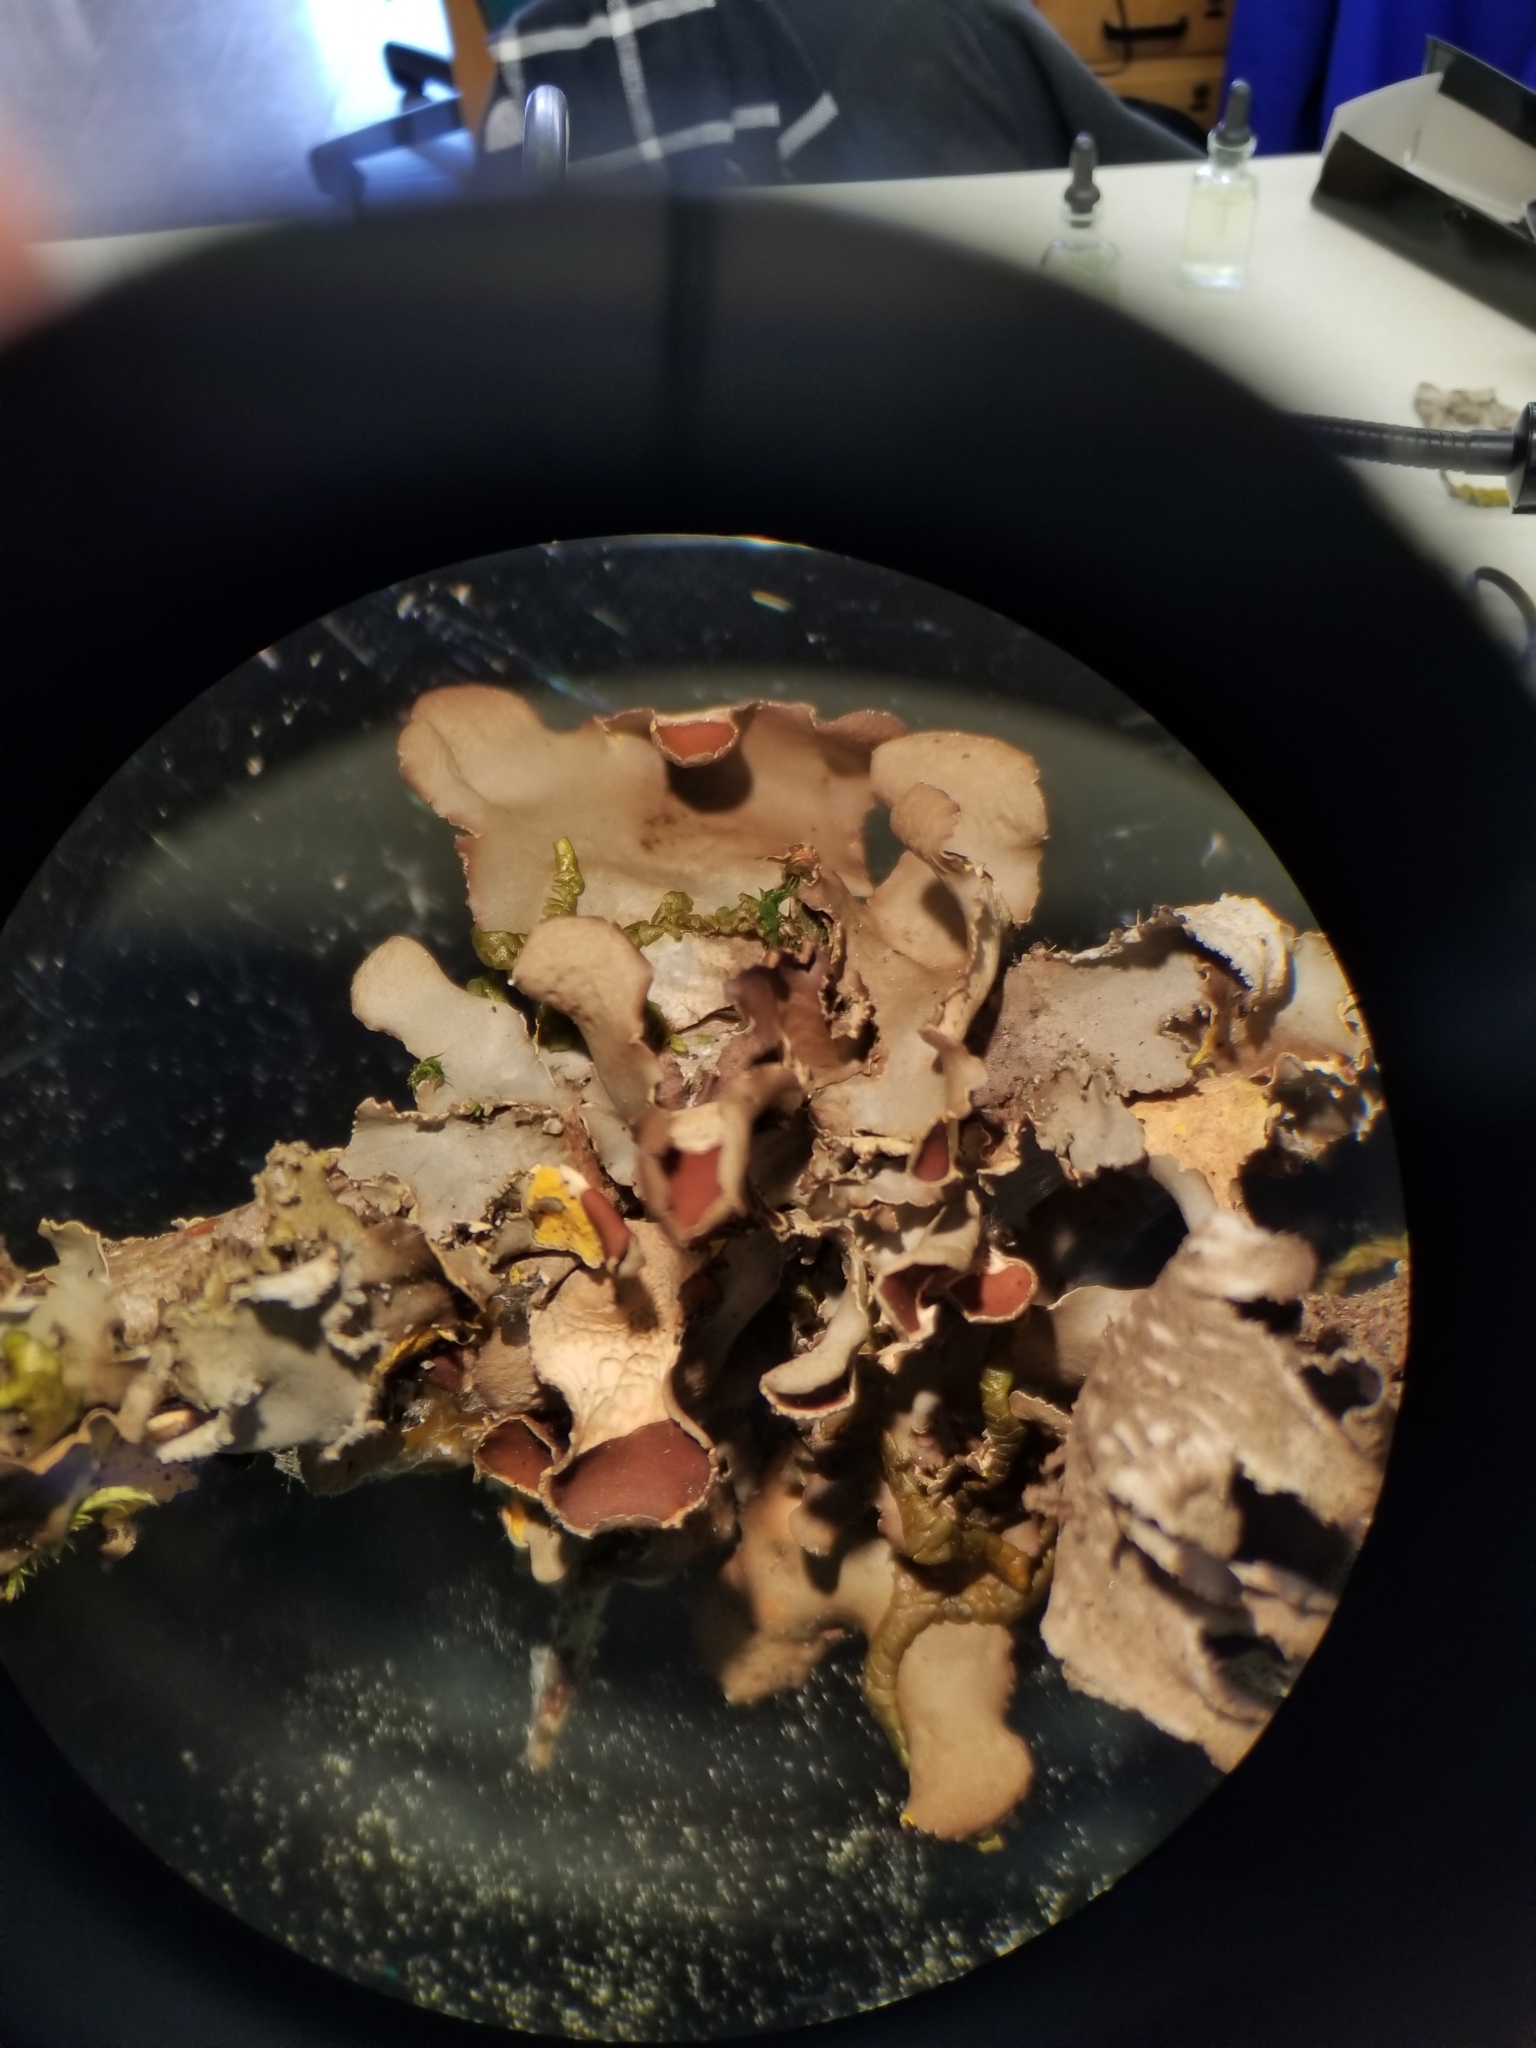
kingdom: Fungi
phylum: Ascomycota
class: Lecanoromycetes
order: Peltigerales
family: Nephromataceae
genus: Nephroma
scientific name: Nephroma laevigatum
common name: Mustard kidney lichen
